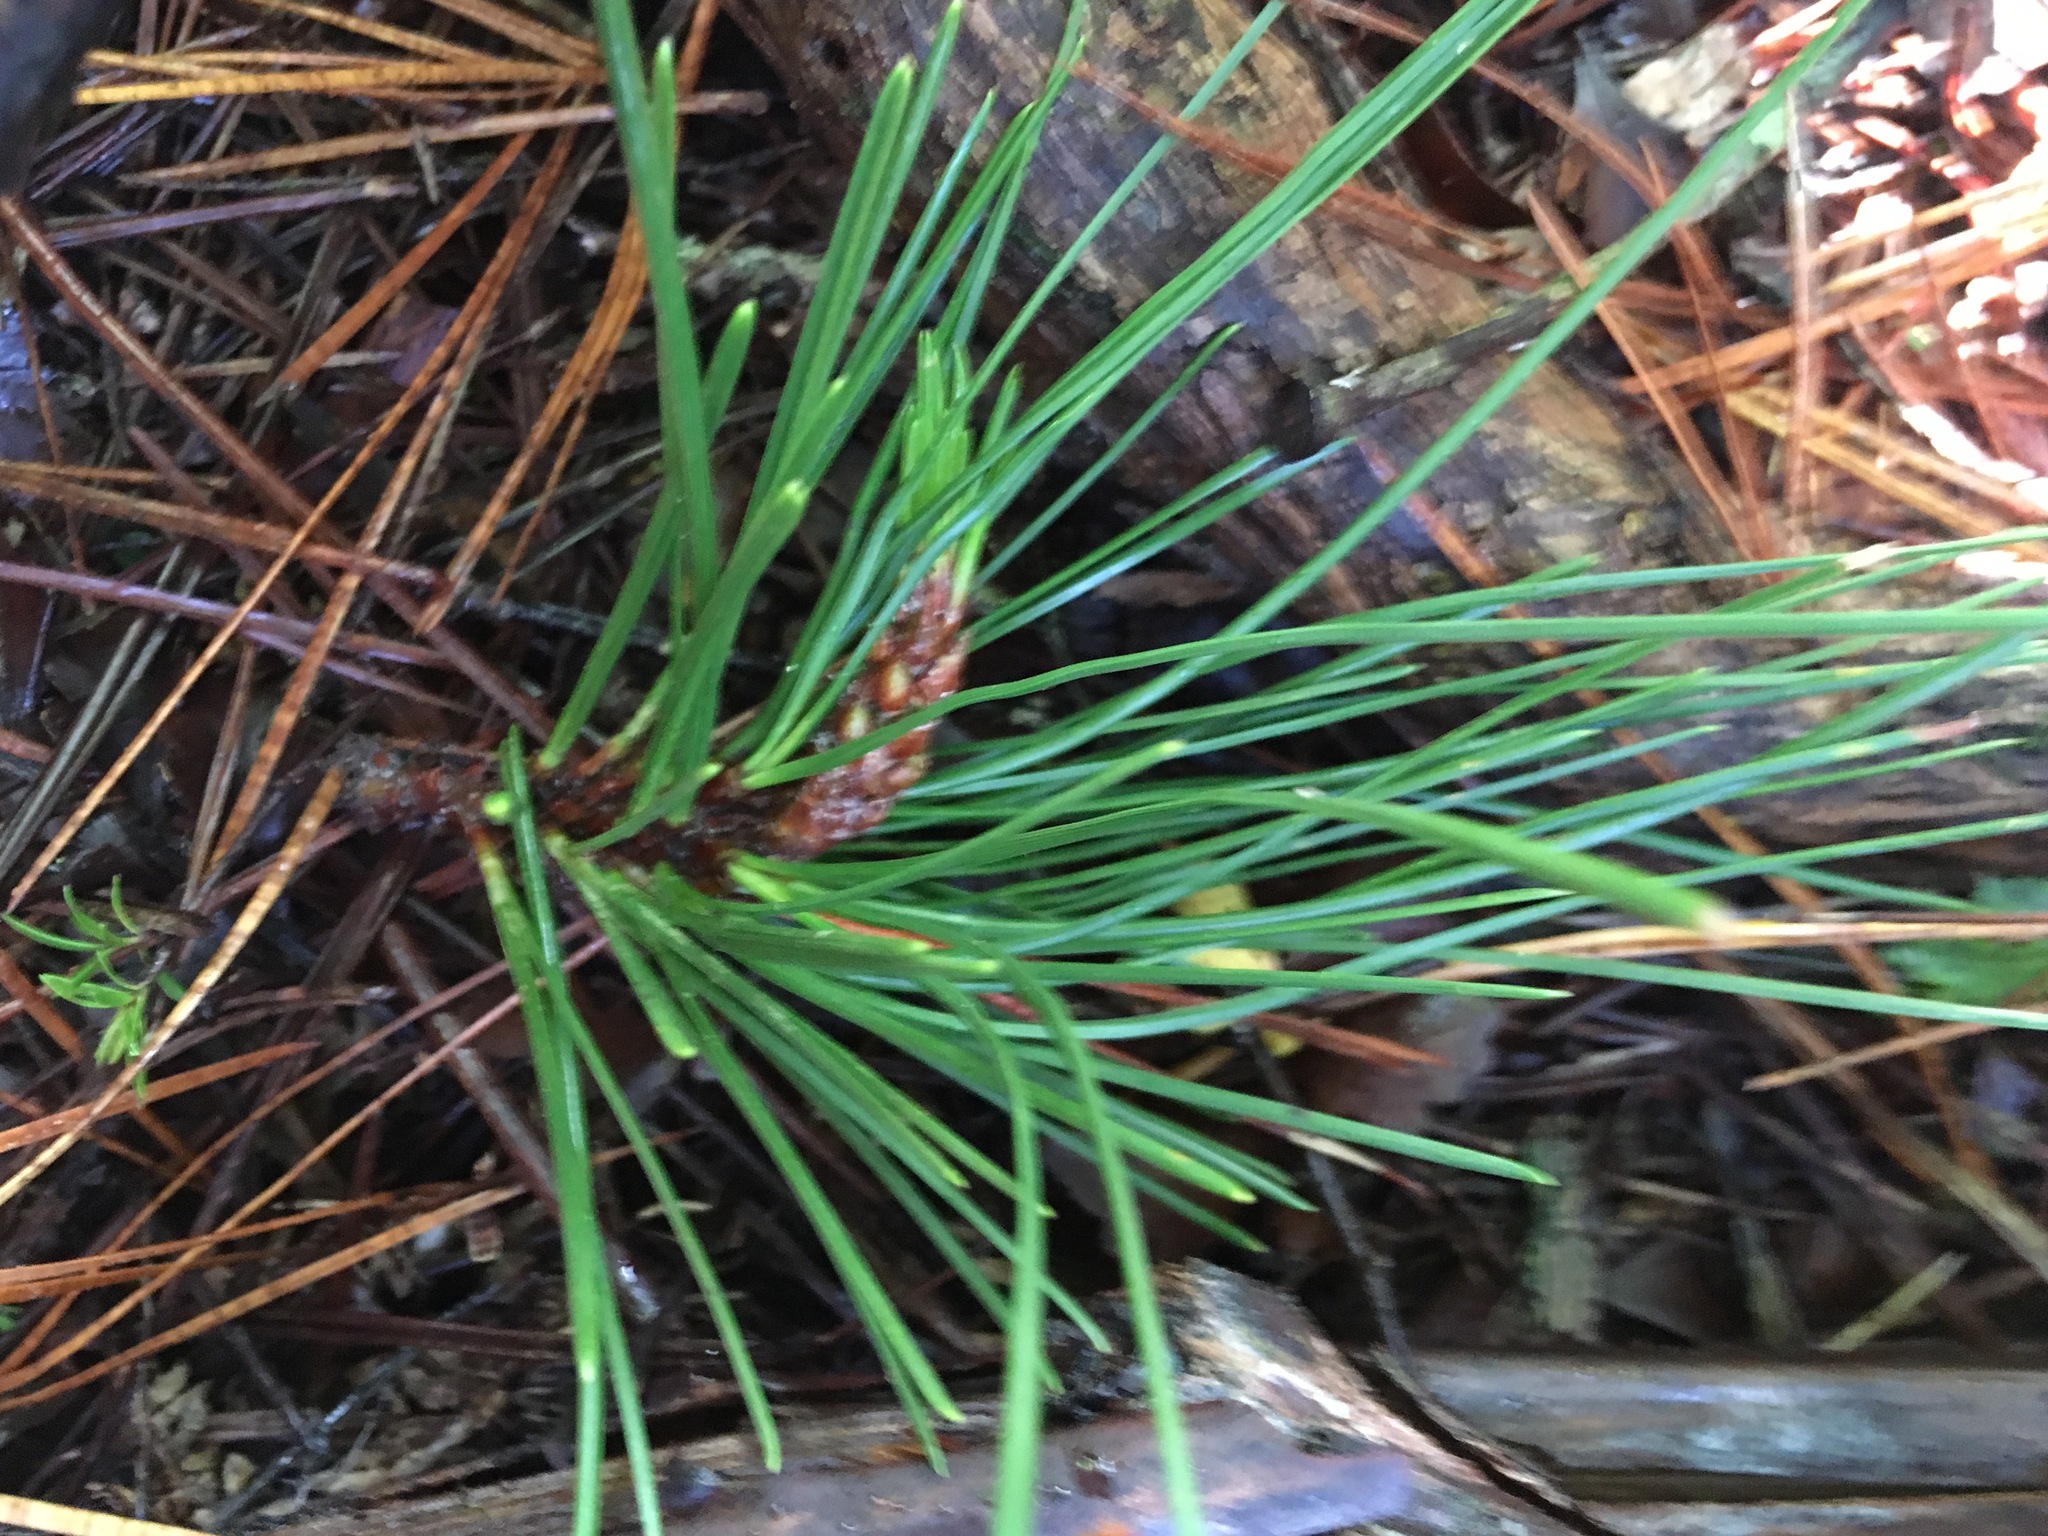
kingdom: Plantae
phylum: Tracheophyta
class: Pinopsida
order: Pinales
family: Pinaceae
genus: Pinus
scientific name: Pinus radiata
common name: Monterey pine
